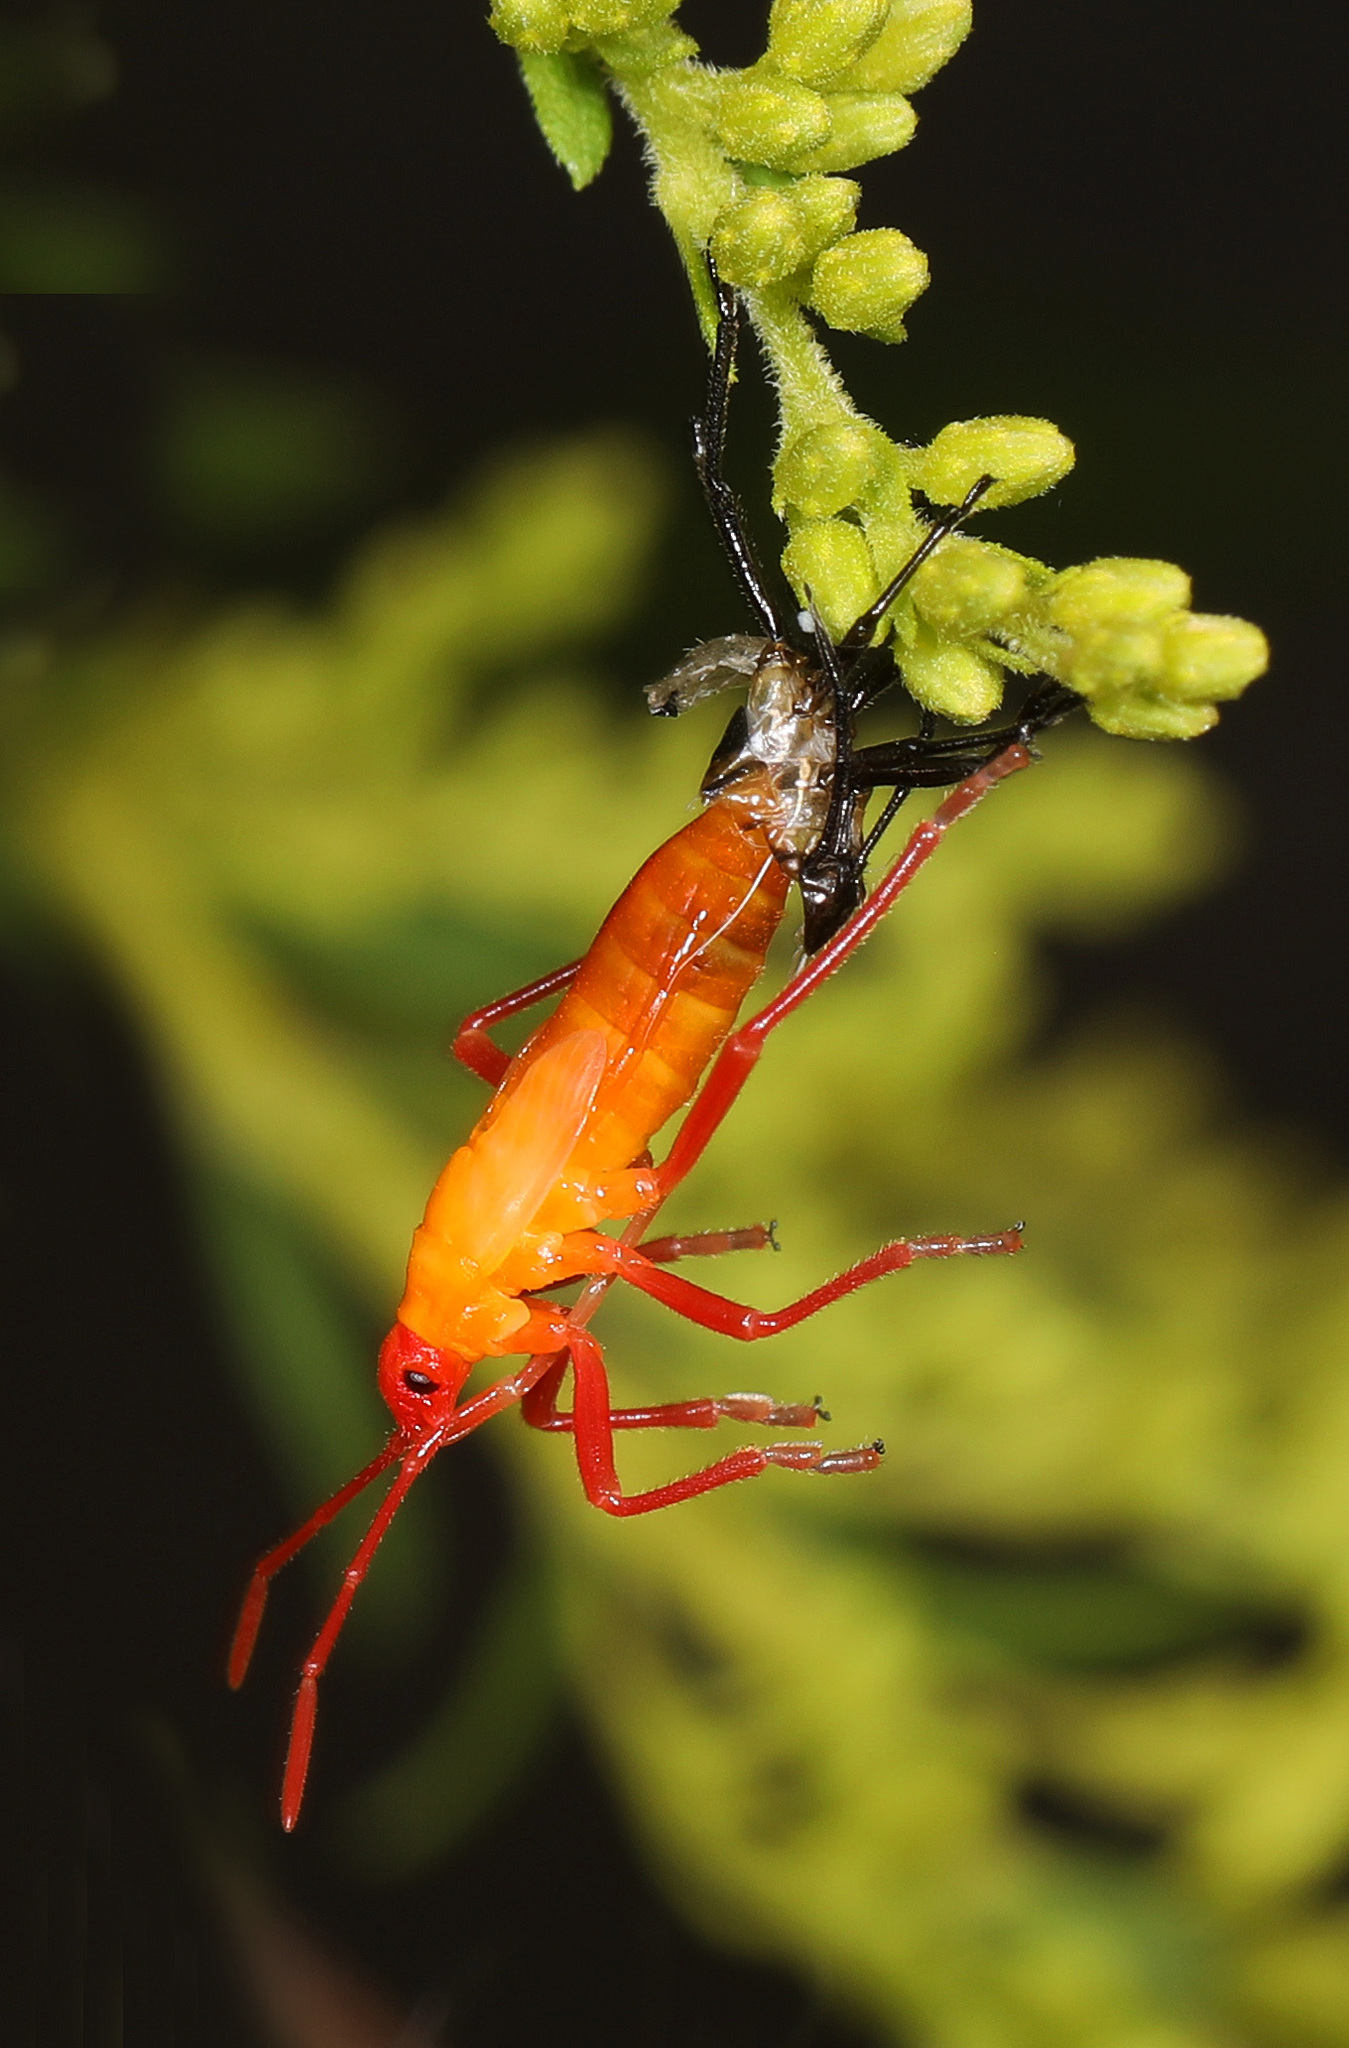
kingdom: Animalia
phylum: Arthropoda
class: Insecta
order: Hemiptera
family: Lygaeidae
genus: Oncopeltus
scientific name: Oncopeltus fasciatus
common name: Large milkweed bug
